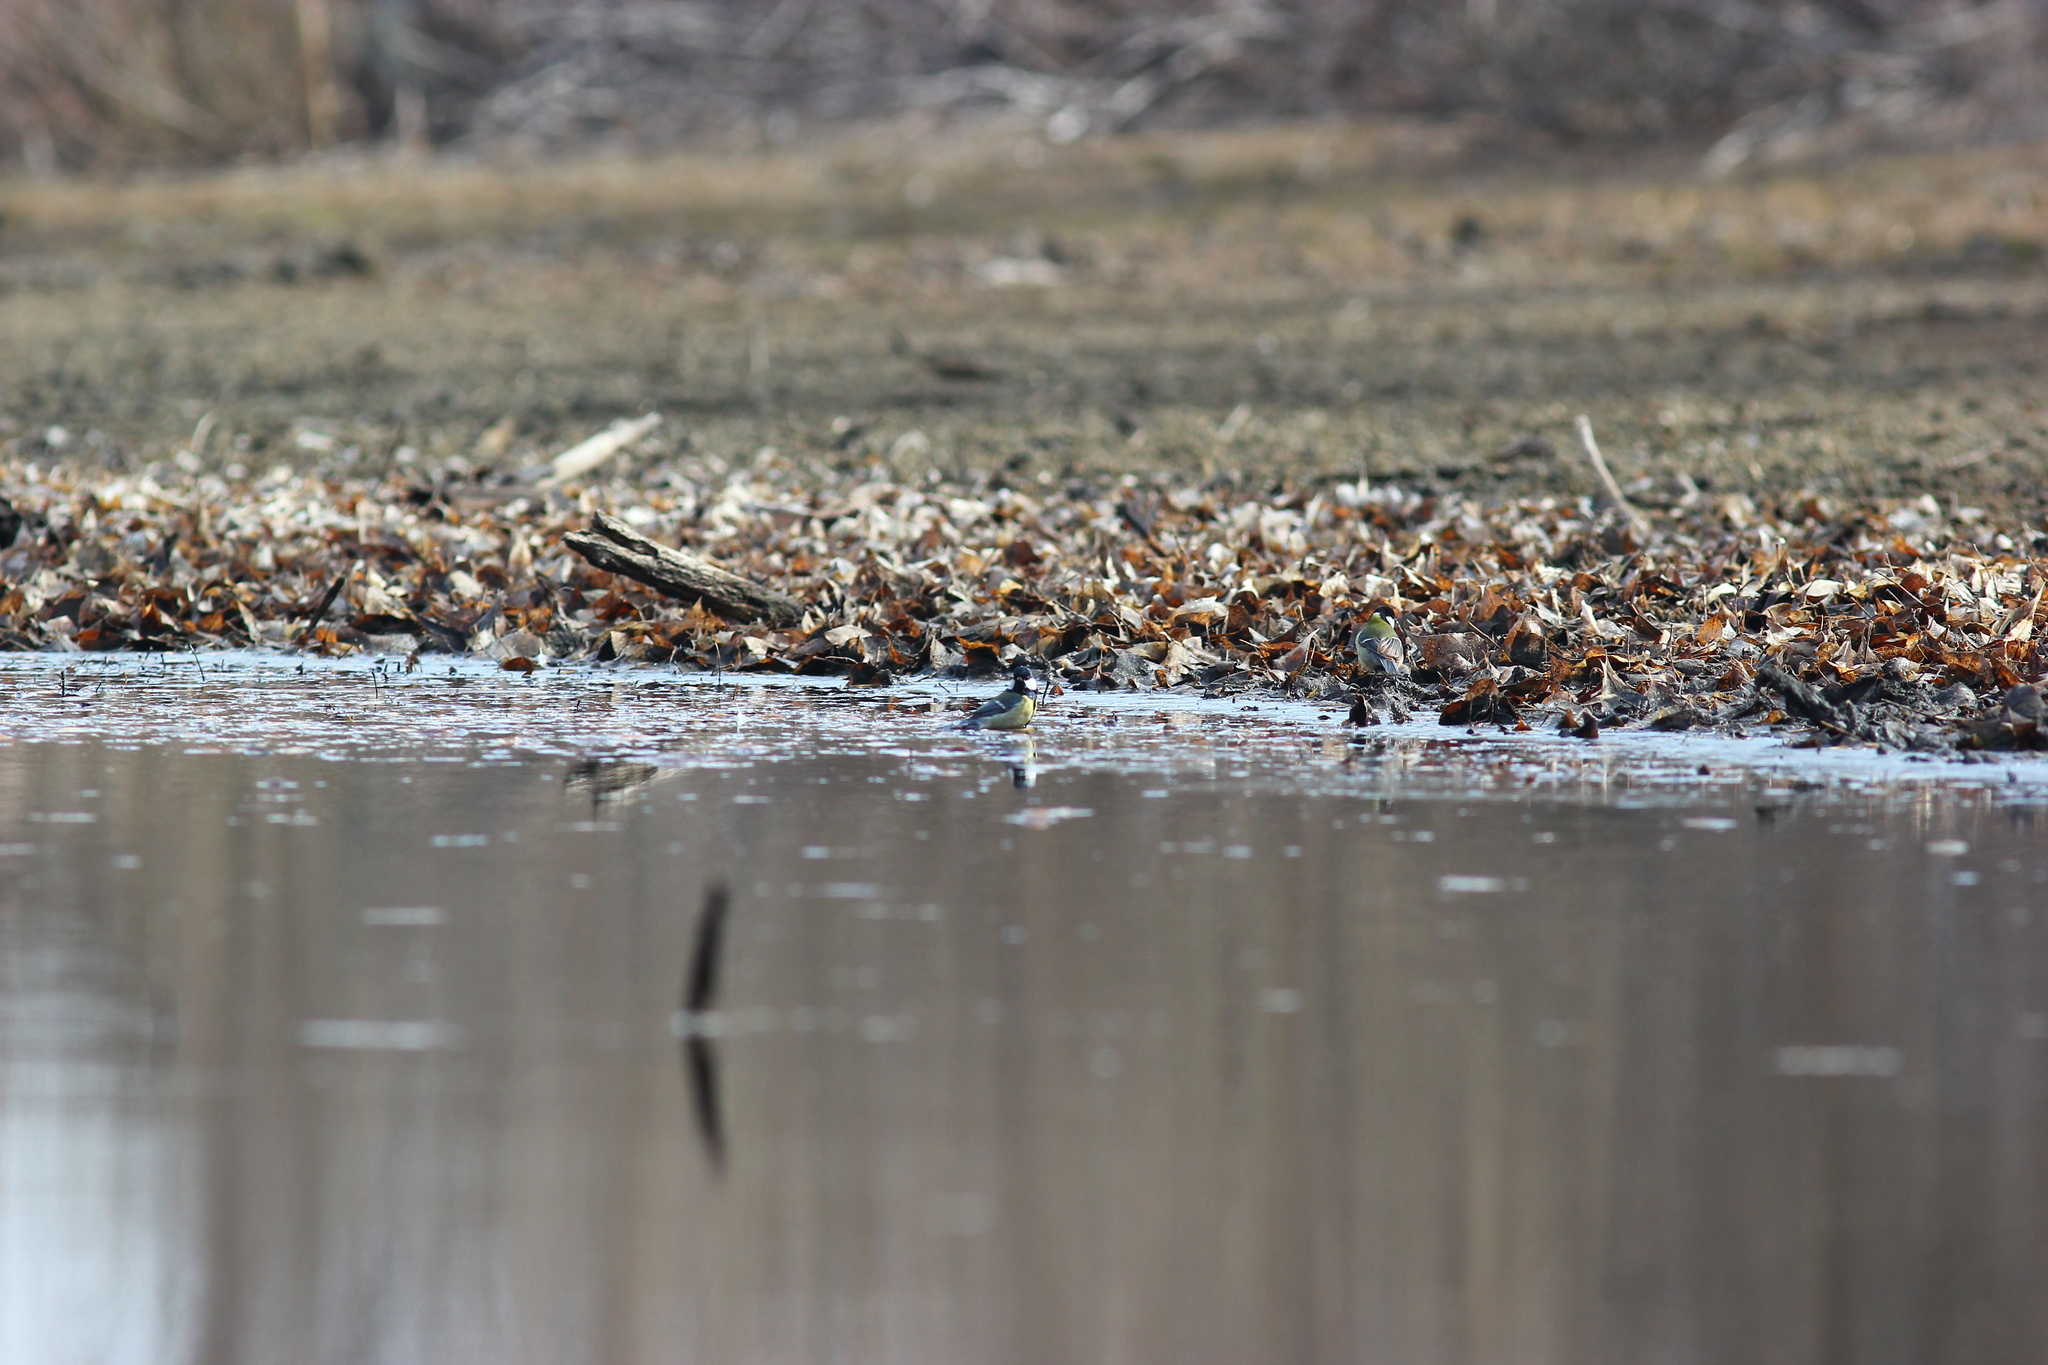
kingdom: Animalia
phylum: Chordata
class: Aves
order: Passeriformes
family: Paridae
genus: Parus
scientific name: Parus major
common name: Great tit
